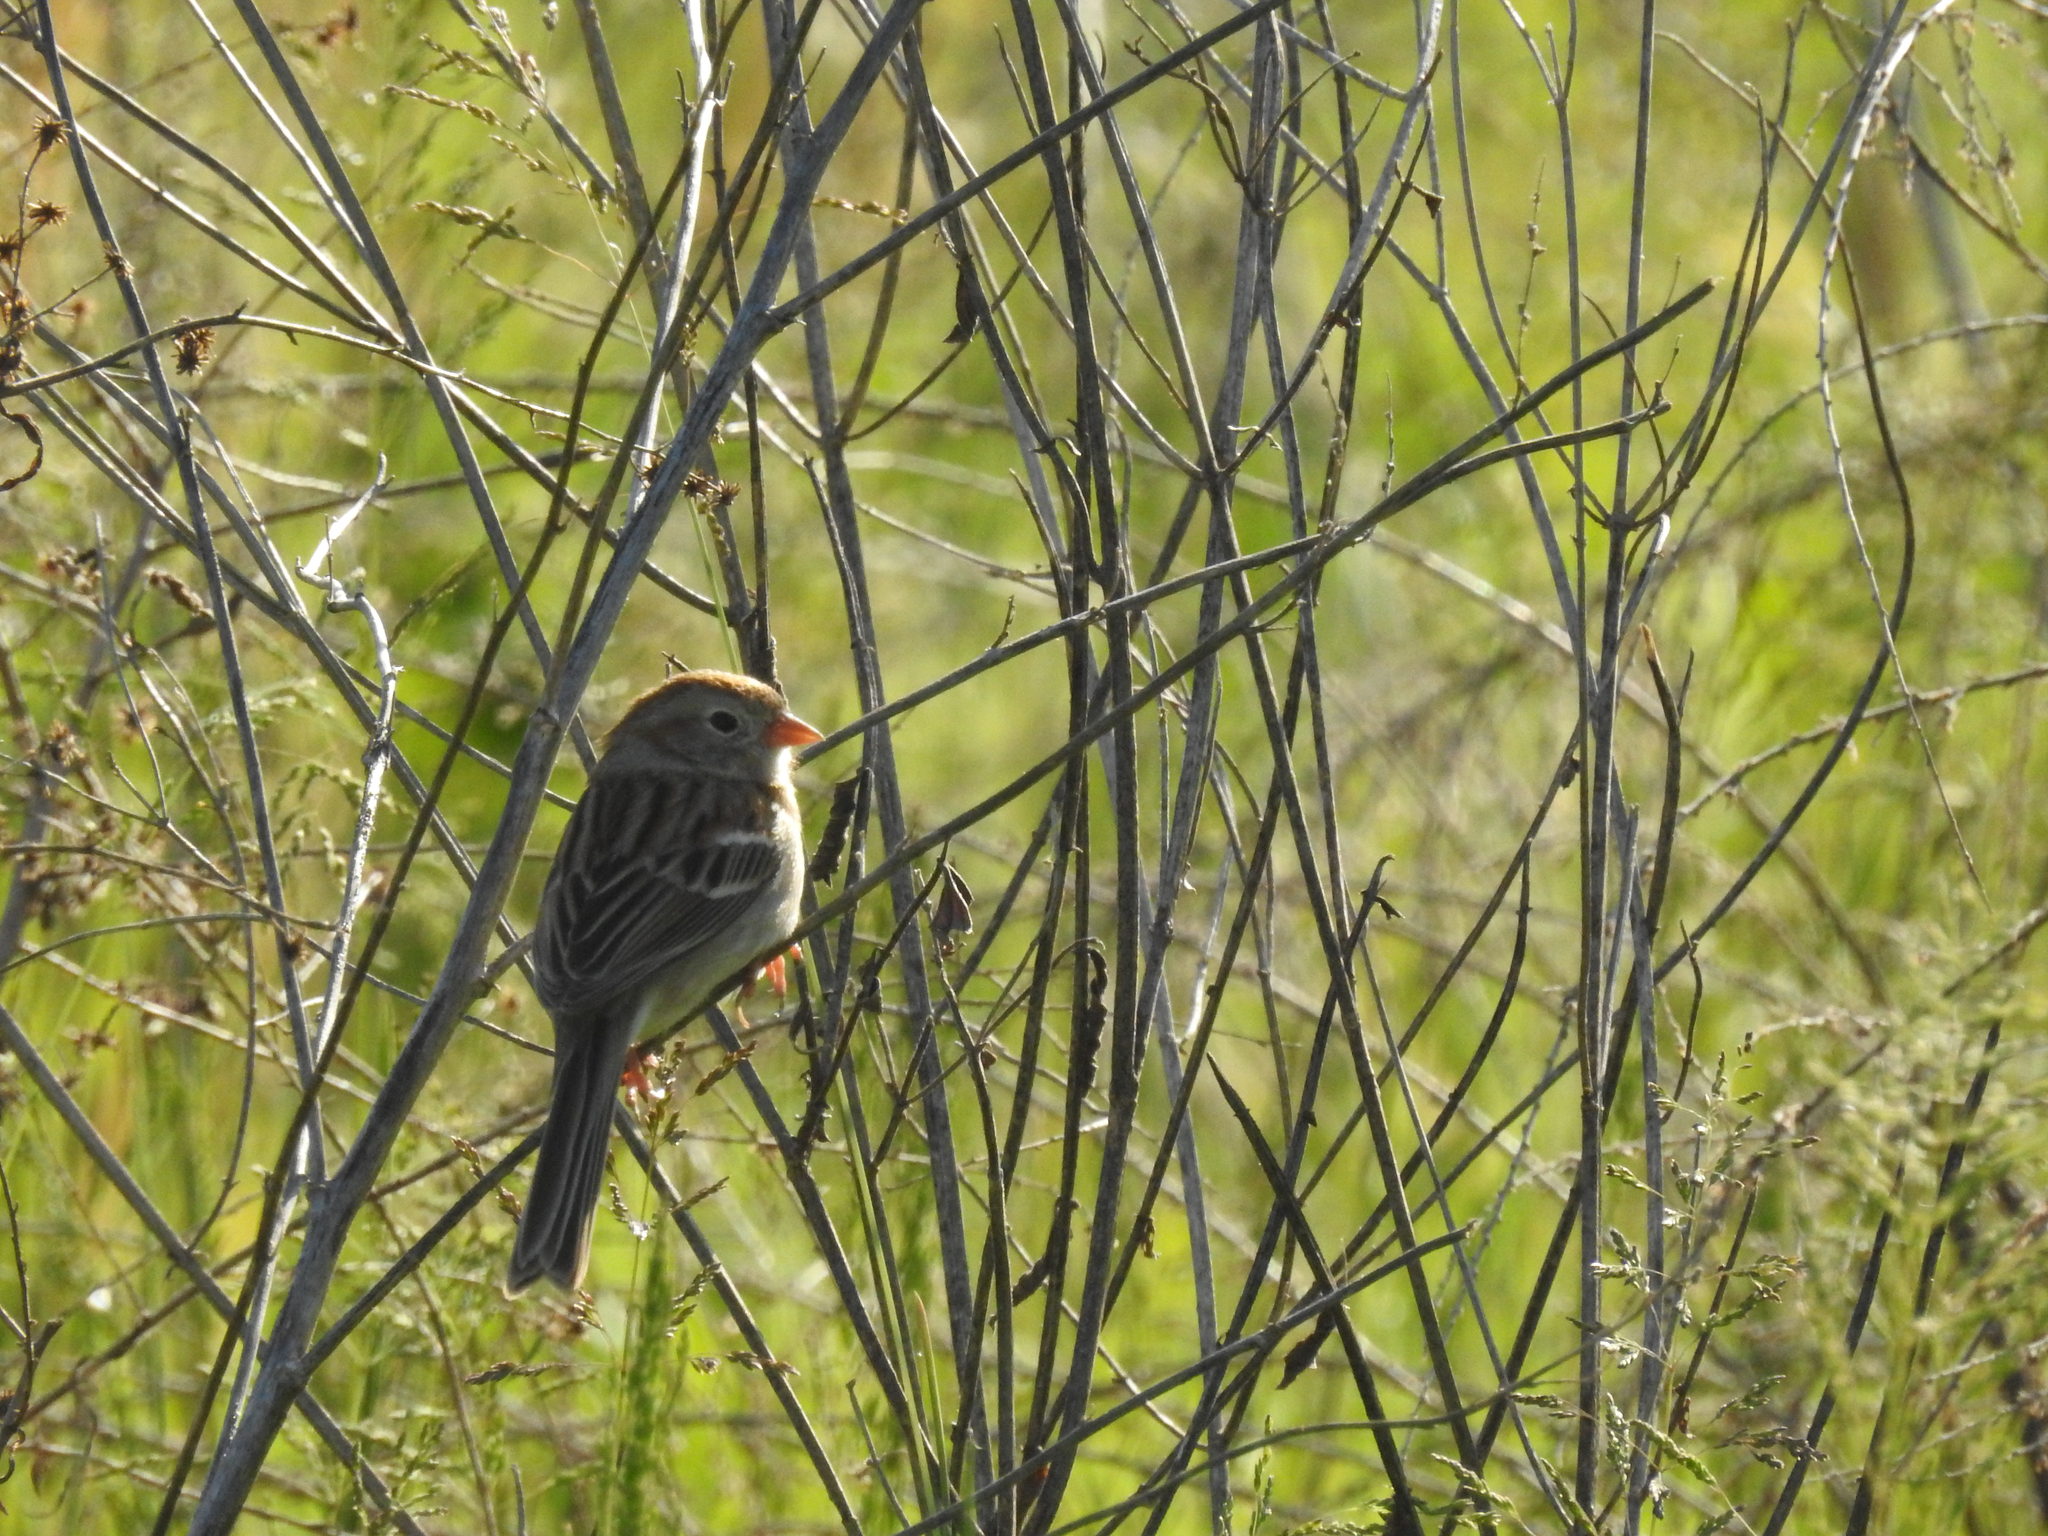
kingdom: Animalia
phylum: Chordata
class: Aves
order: Passeriformes
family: Passerellidae
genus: Spizella
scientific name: Spizella pusilla
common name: Field sparrow
